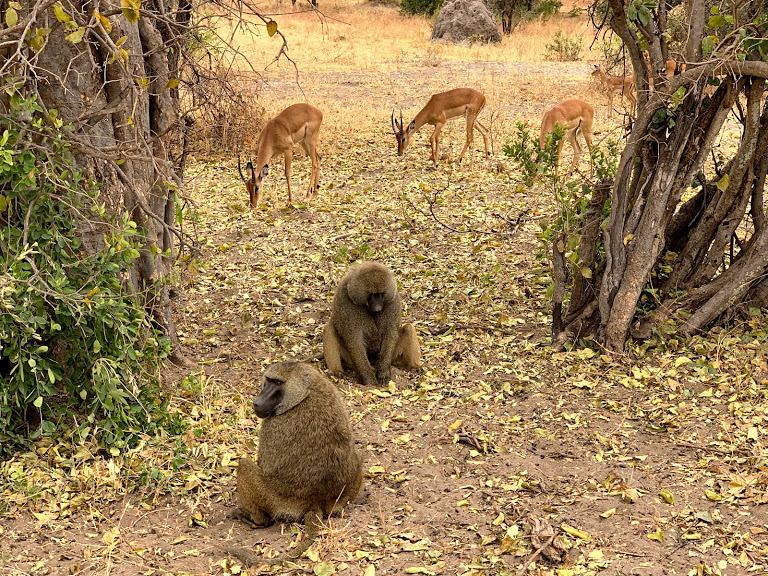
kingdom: Animalia
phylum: Chordata
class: Mammalia
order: Primates
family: Cercopithecidae
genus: Papio
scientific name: Papio anubis
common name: Olive baboon
